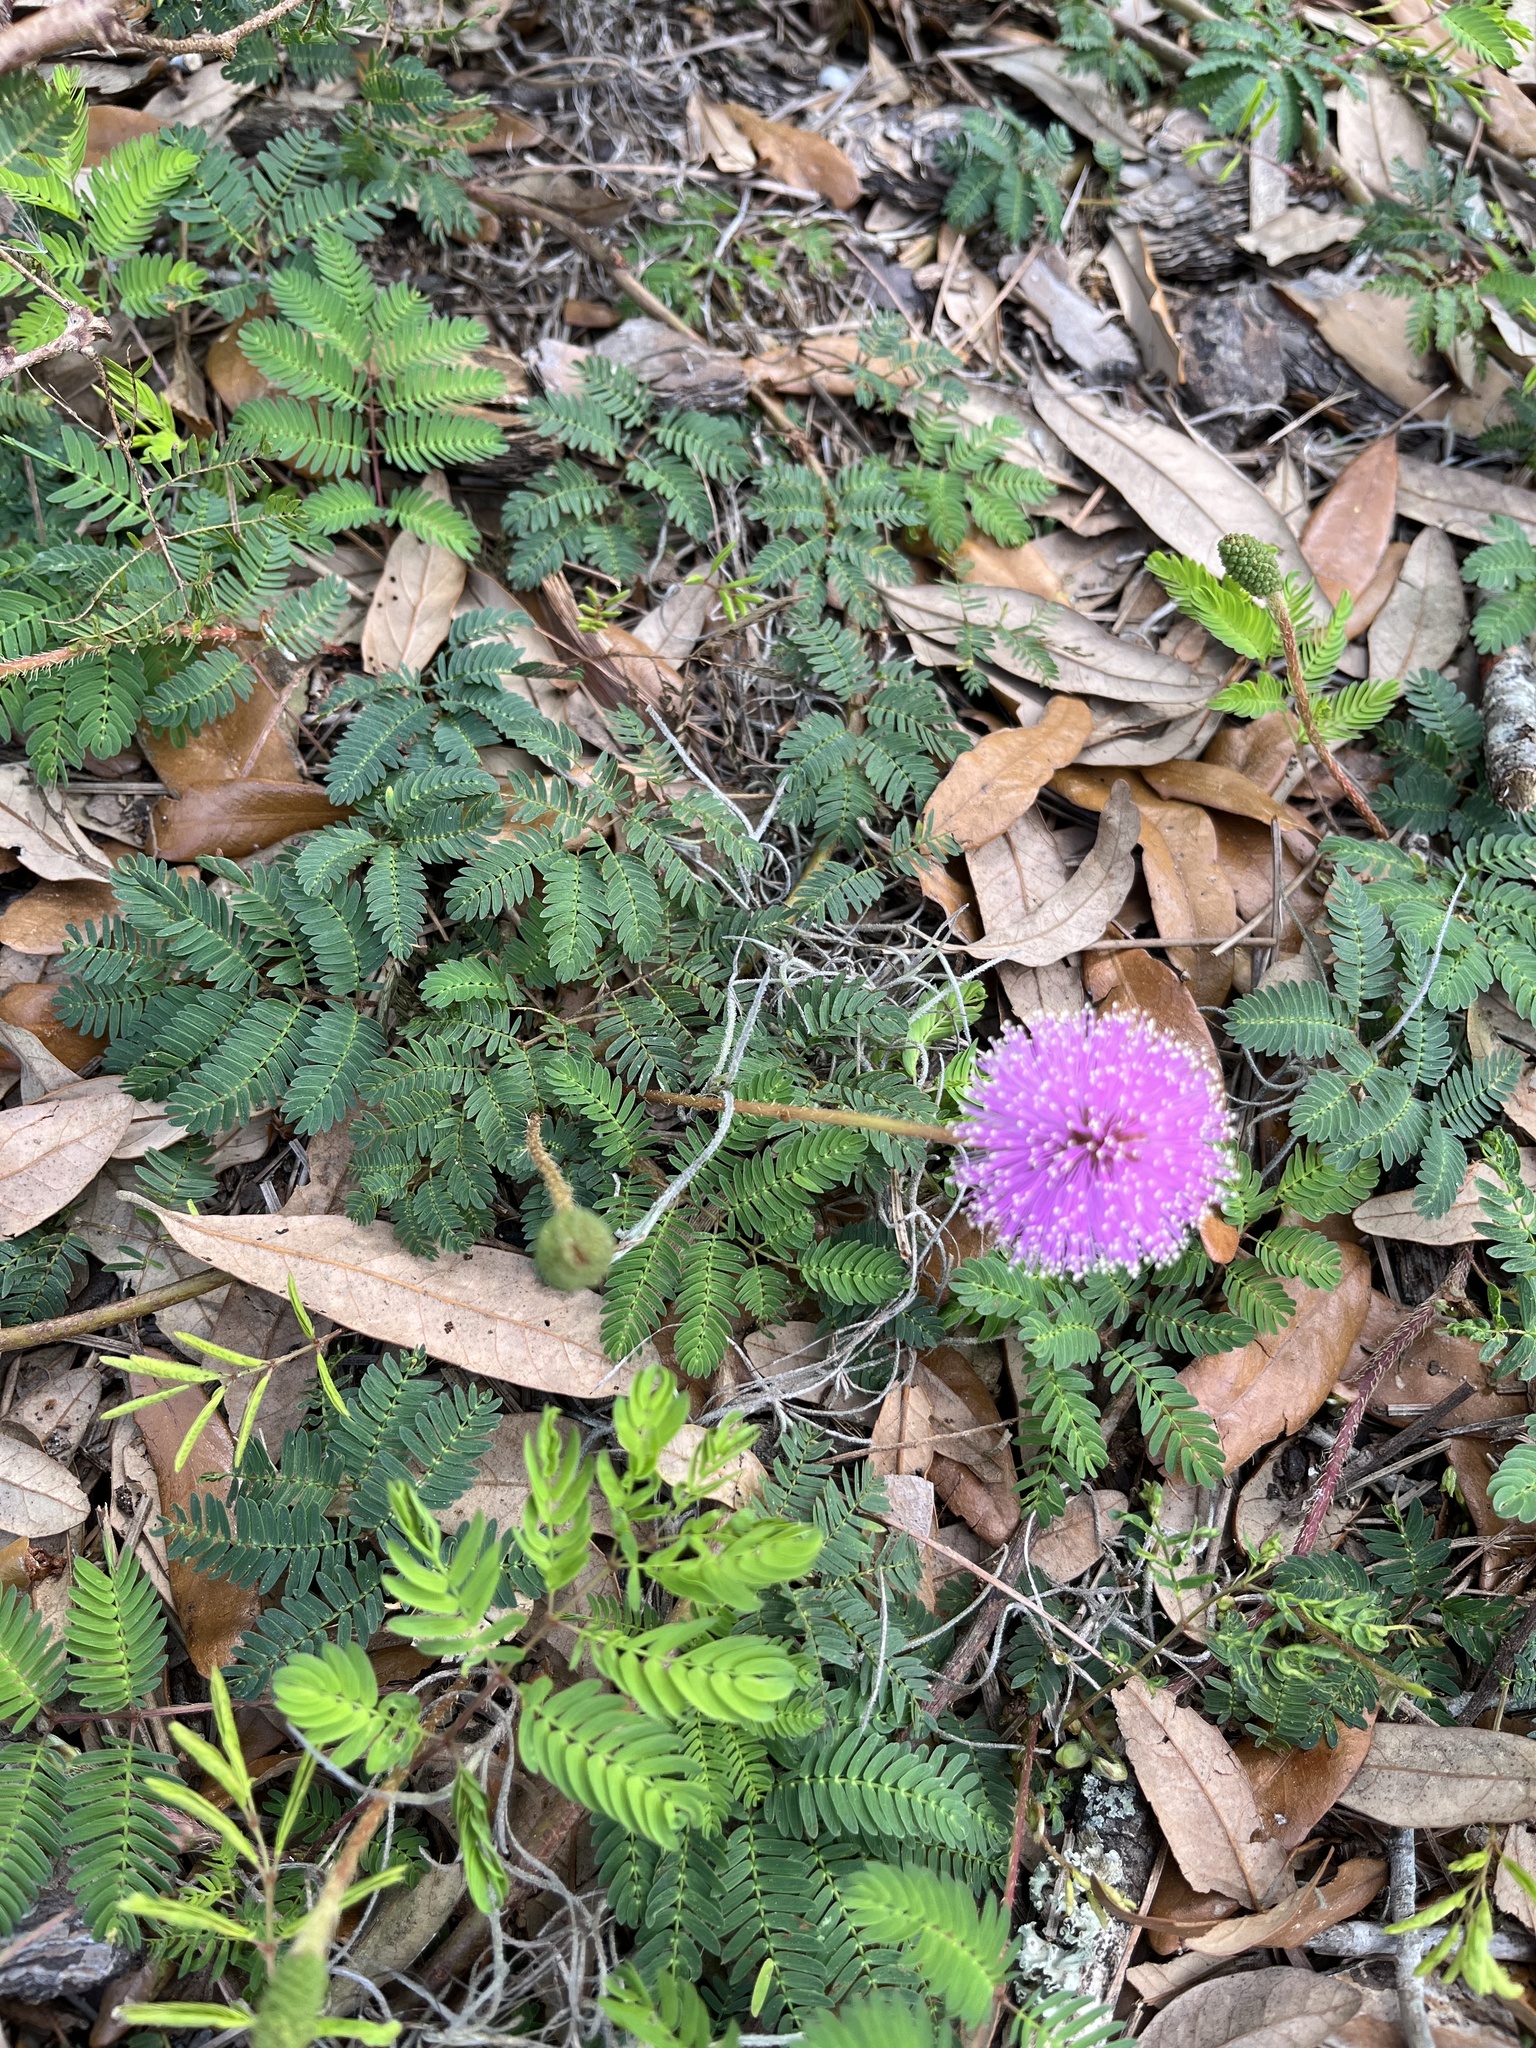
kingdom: Plantae
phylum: Tracheophyta
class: Magnoliopsida
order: Fabales
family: Fabaceae
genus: Mimosa
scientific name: Mimosa strigillosa
